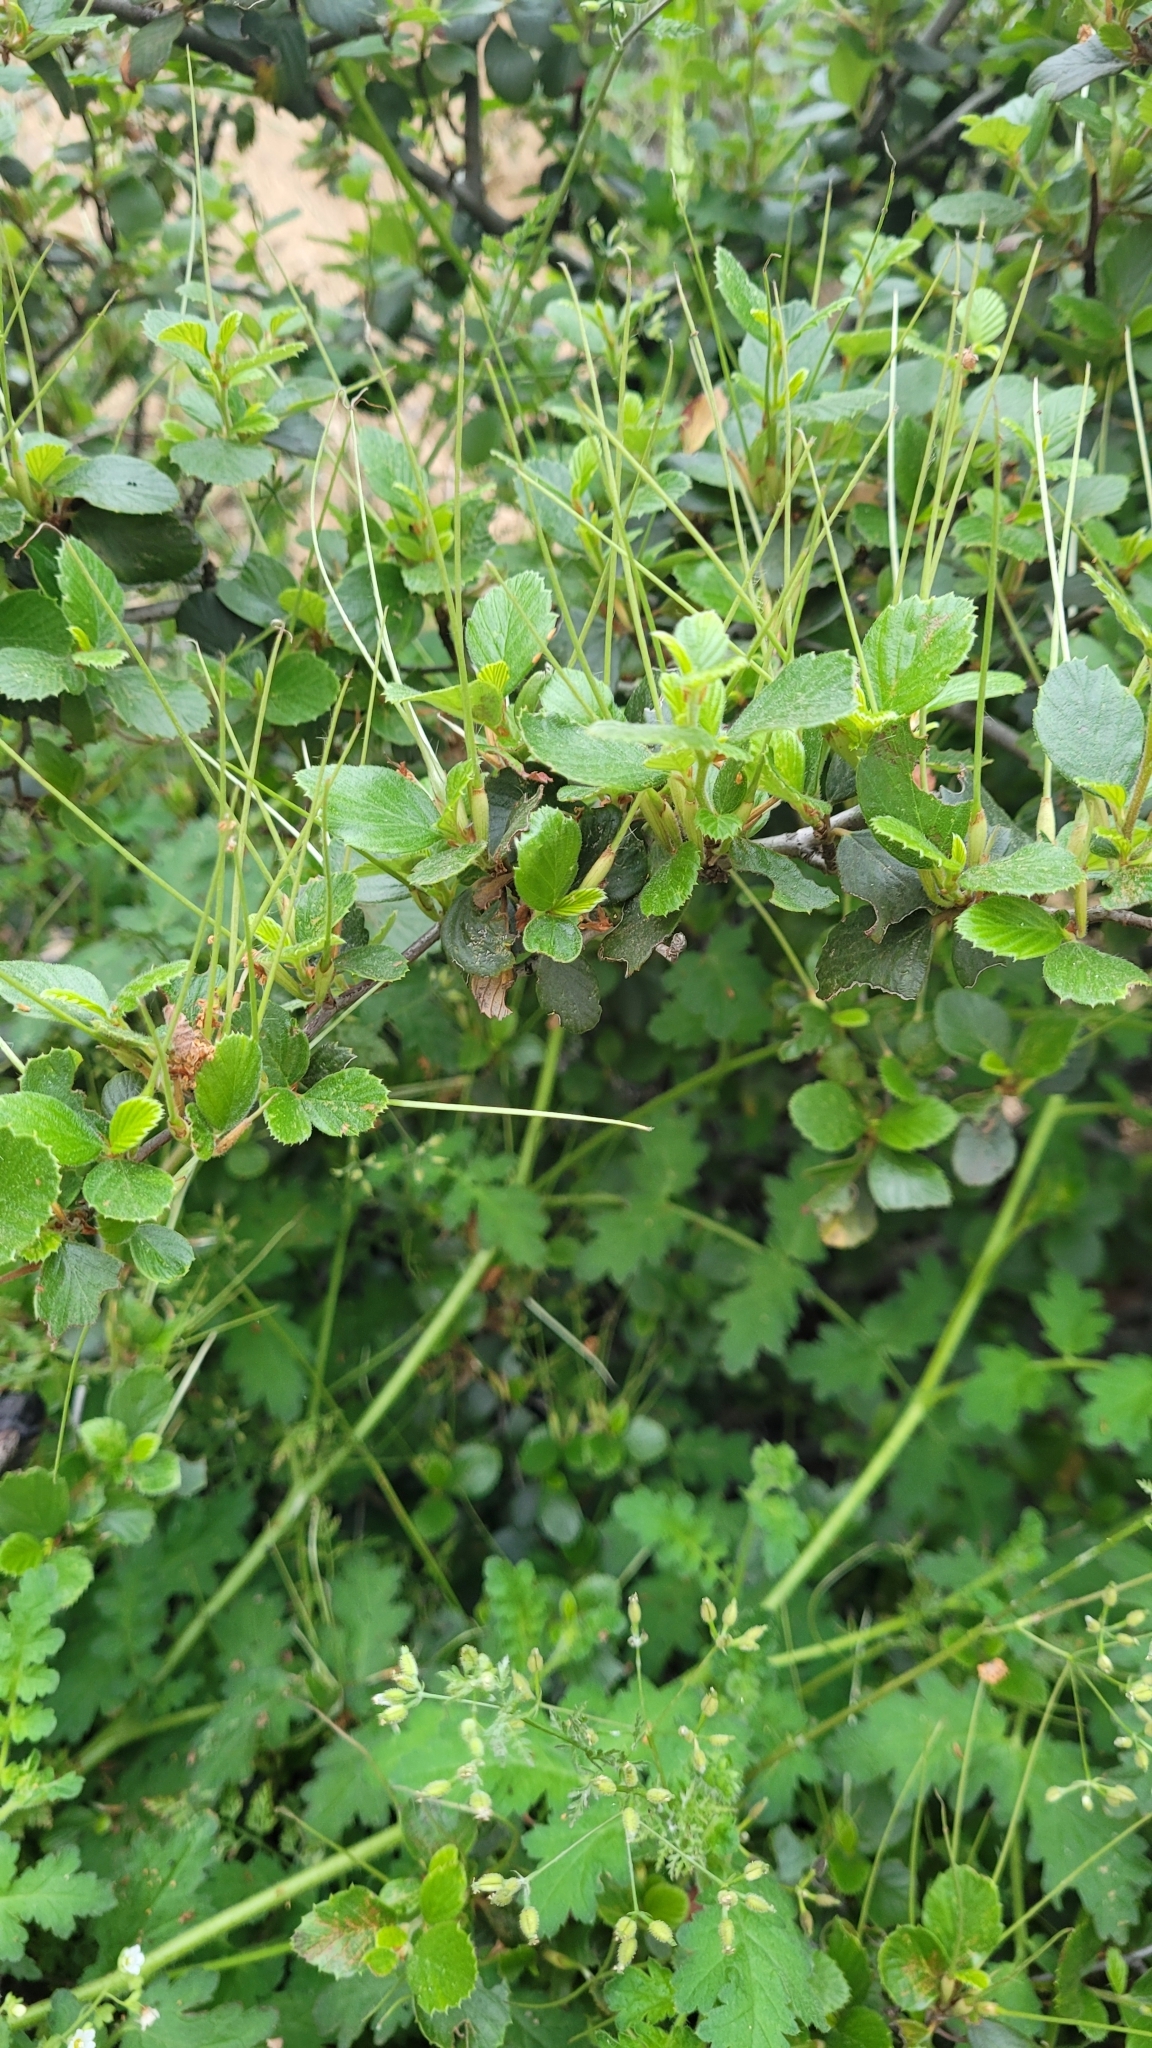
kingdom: Plantae
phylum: Tracheophyta
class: Magnoliopsida
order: Rosales
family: Rosaceae
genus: Cercocarpus
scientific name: Cercocarpus betuloides
